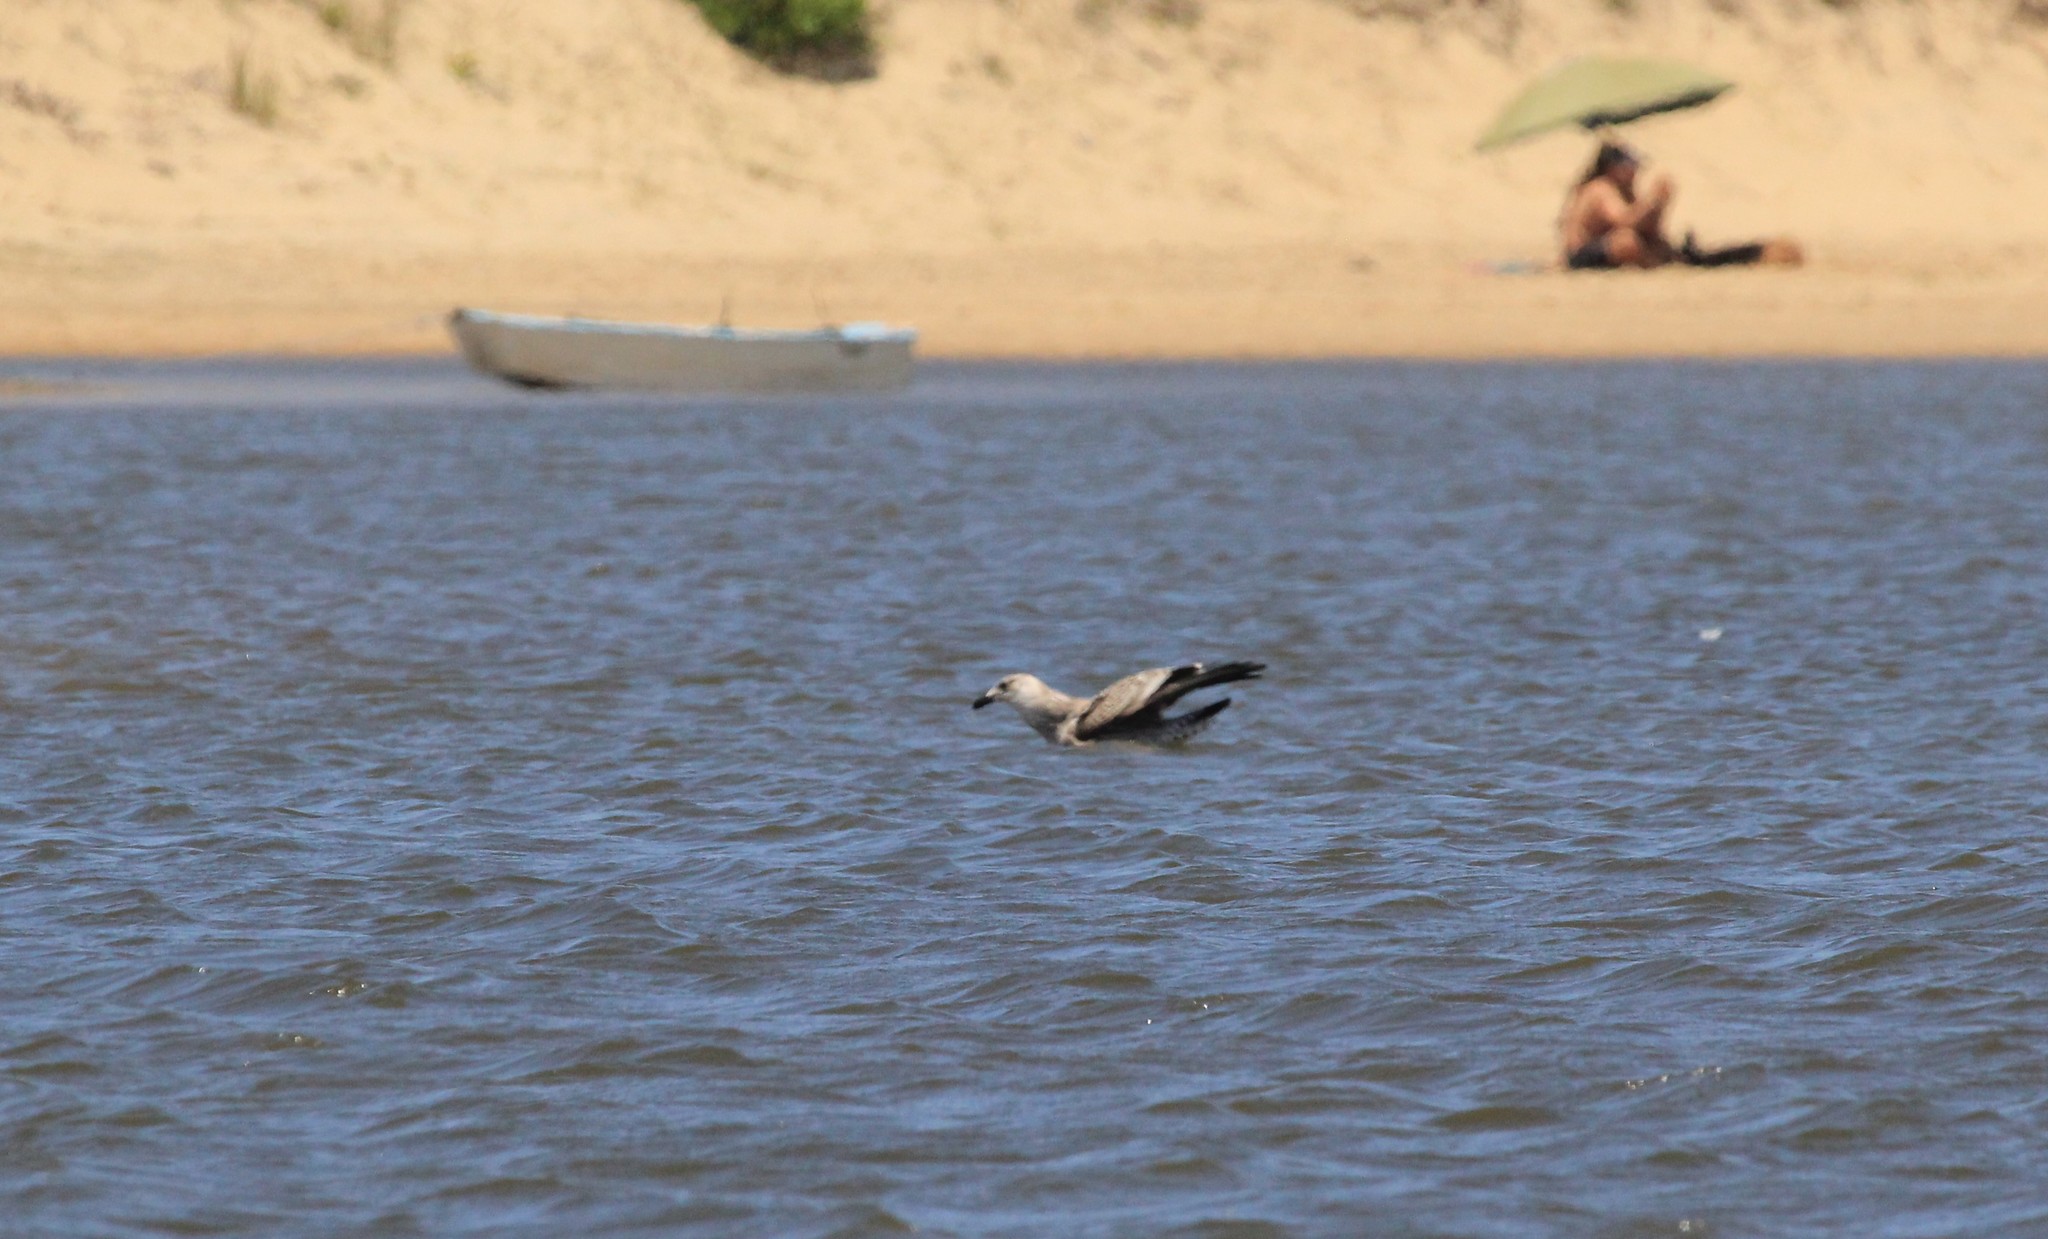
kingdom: Animalia
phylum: Chordata
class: Aves
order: Charadriiformes
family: Laridae
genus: Larus
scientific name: Larus dominicanus
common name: Kelp gull
